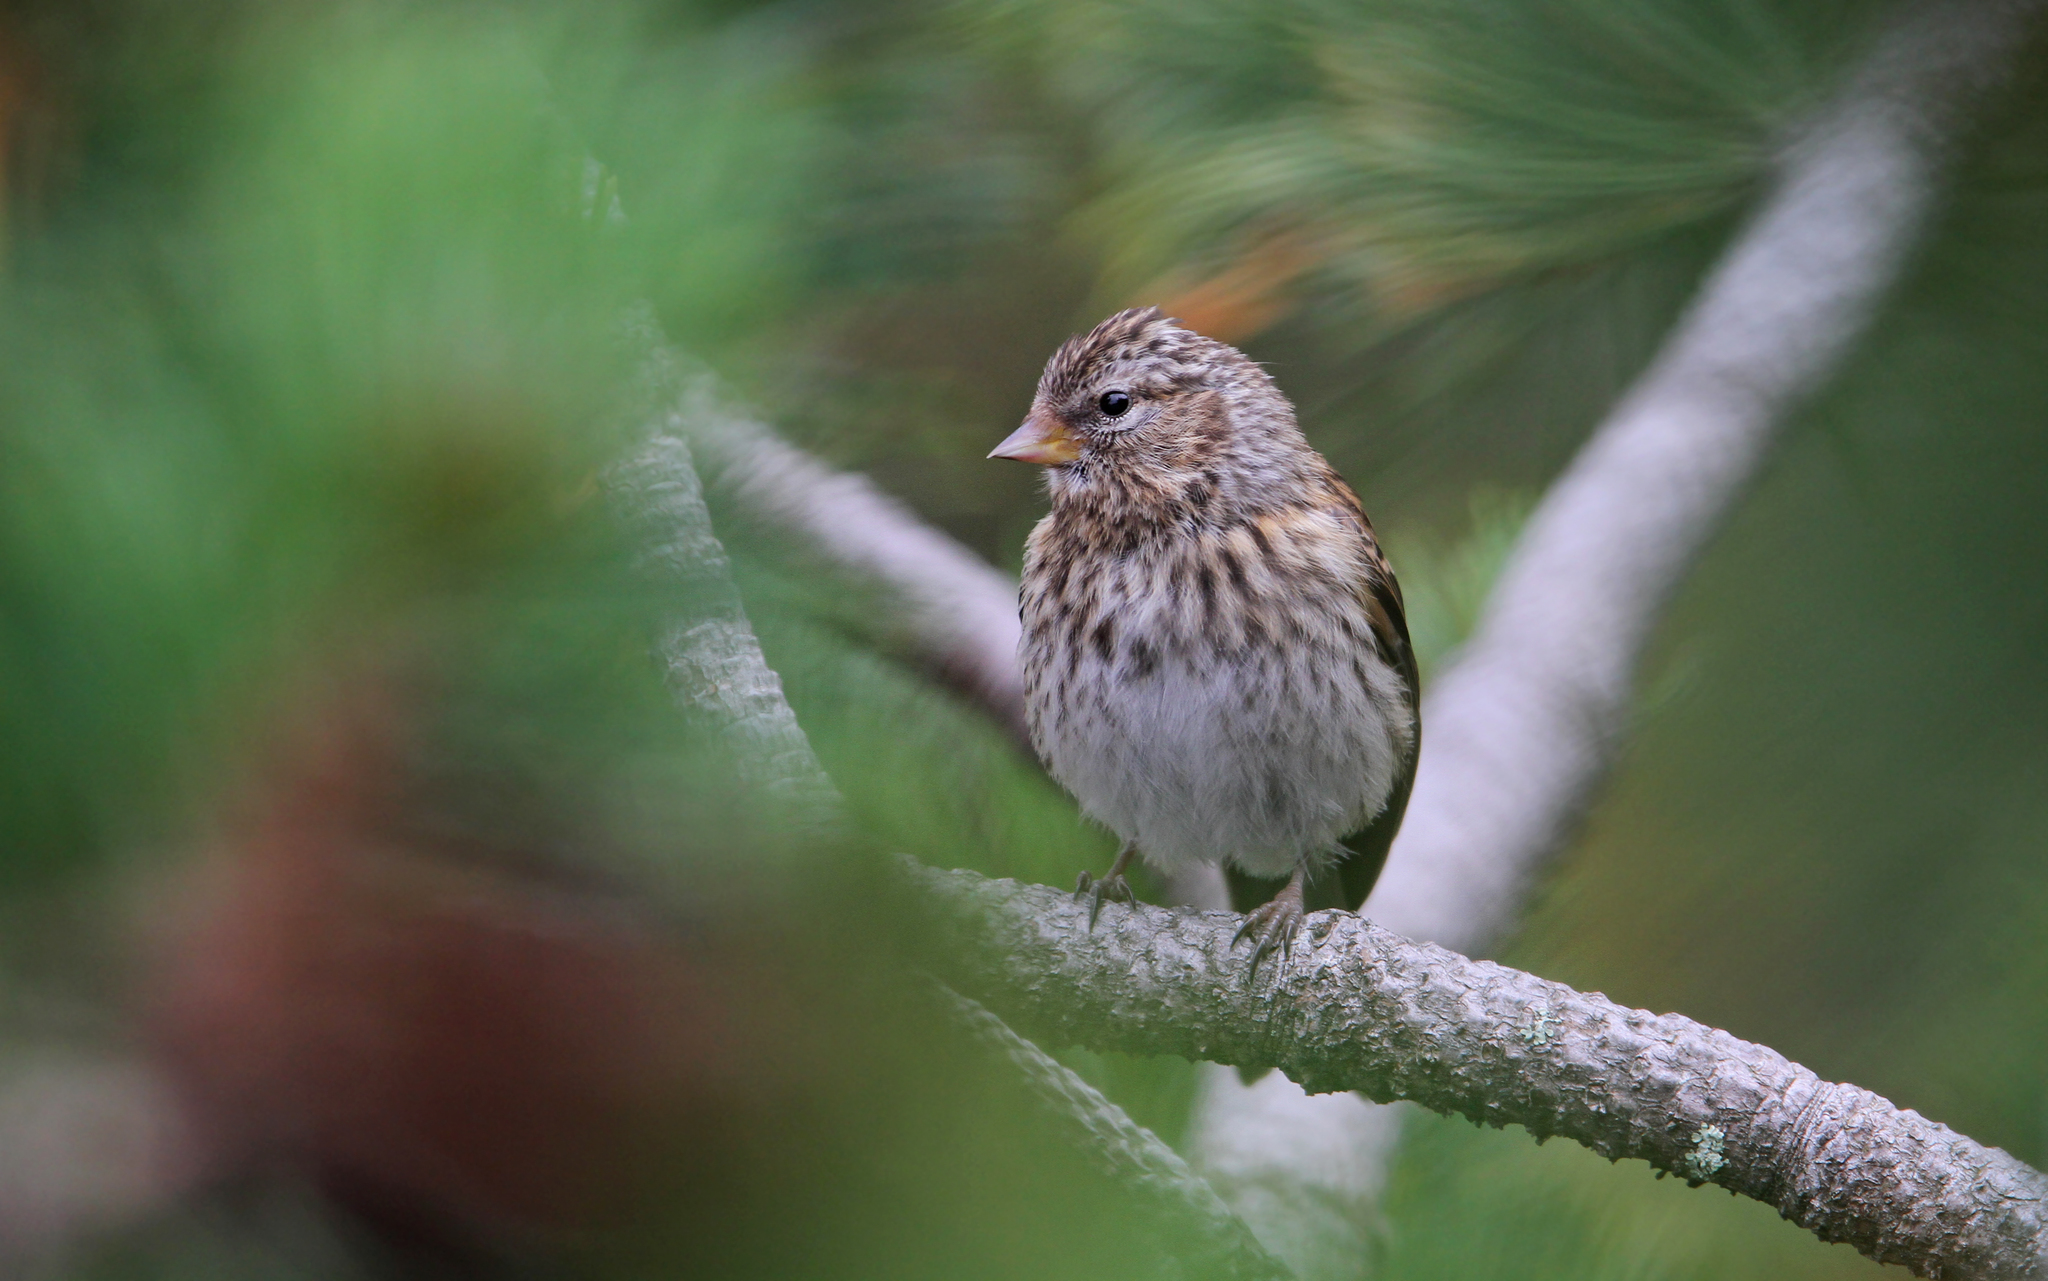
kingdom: Animalia
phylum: Chordata
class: Aves
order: Passeriformes
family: Fringillidae
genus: Acanthis
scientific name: Acanthis flammea
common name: Common redpoll
